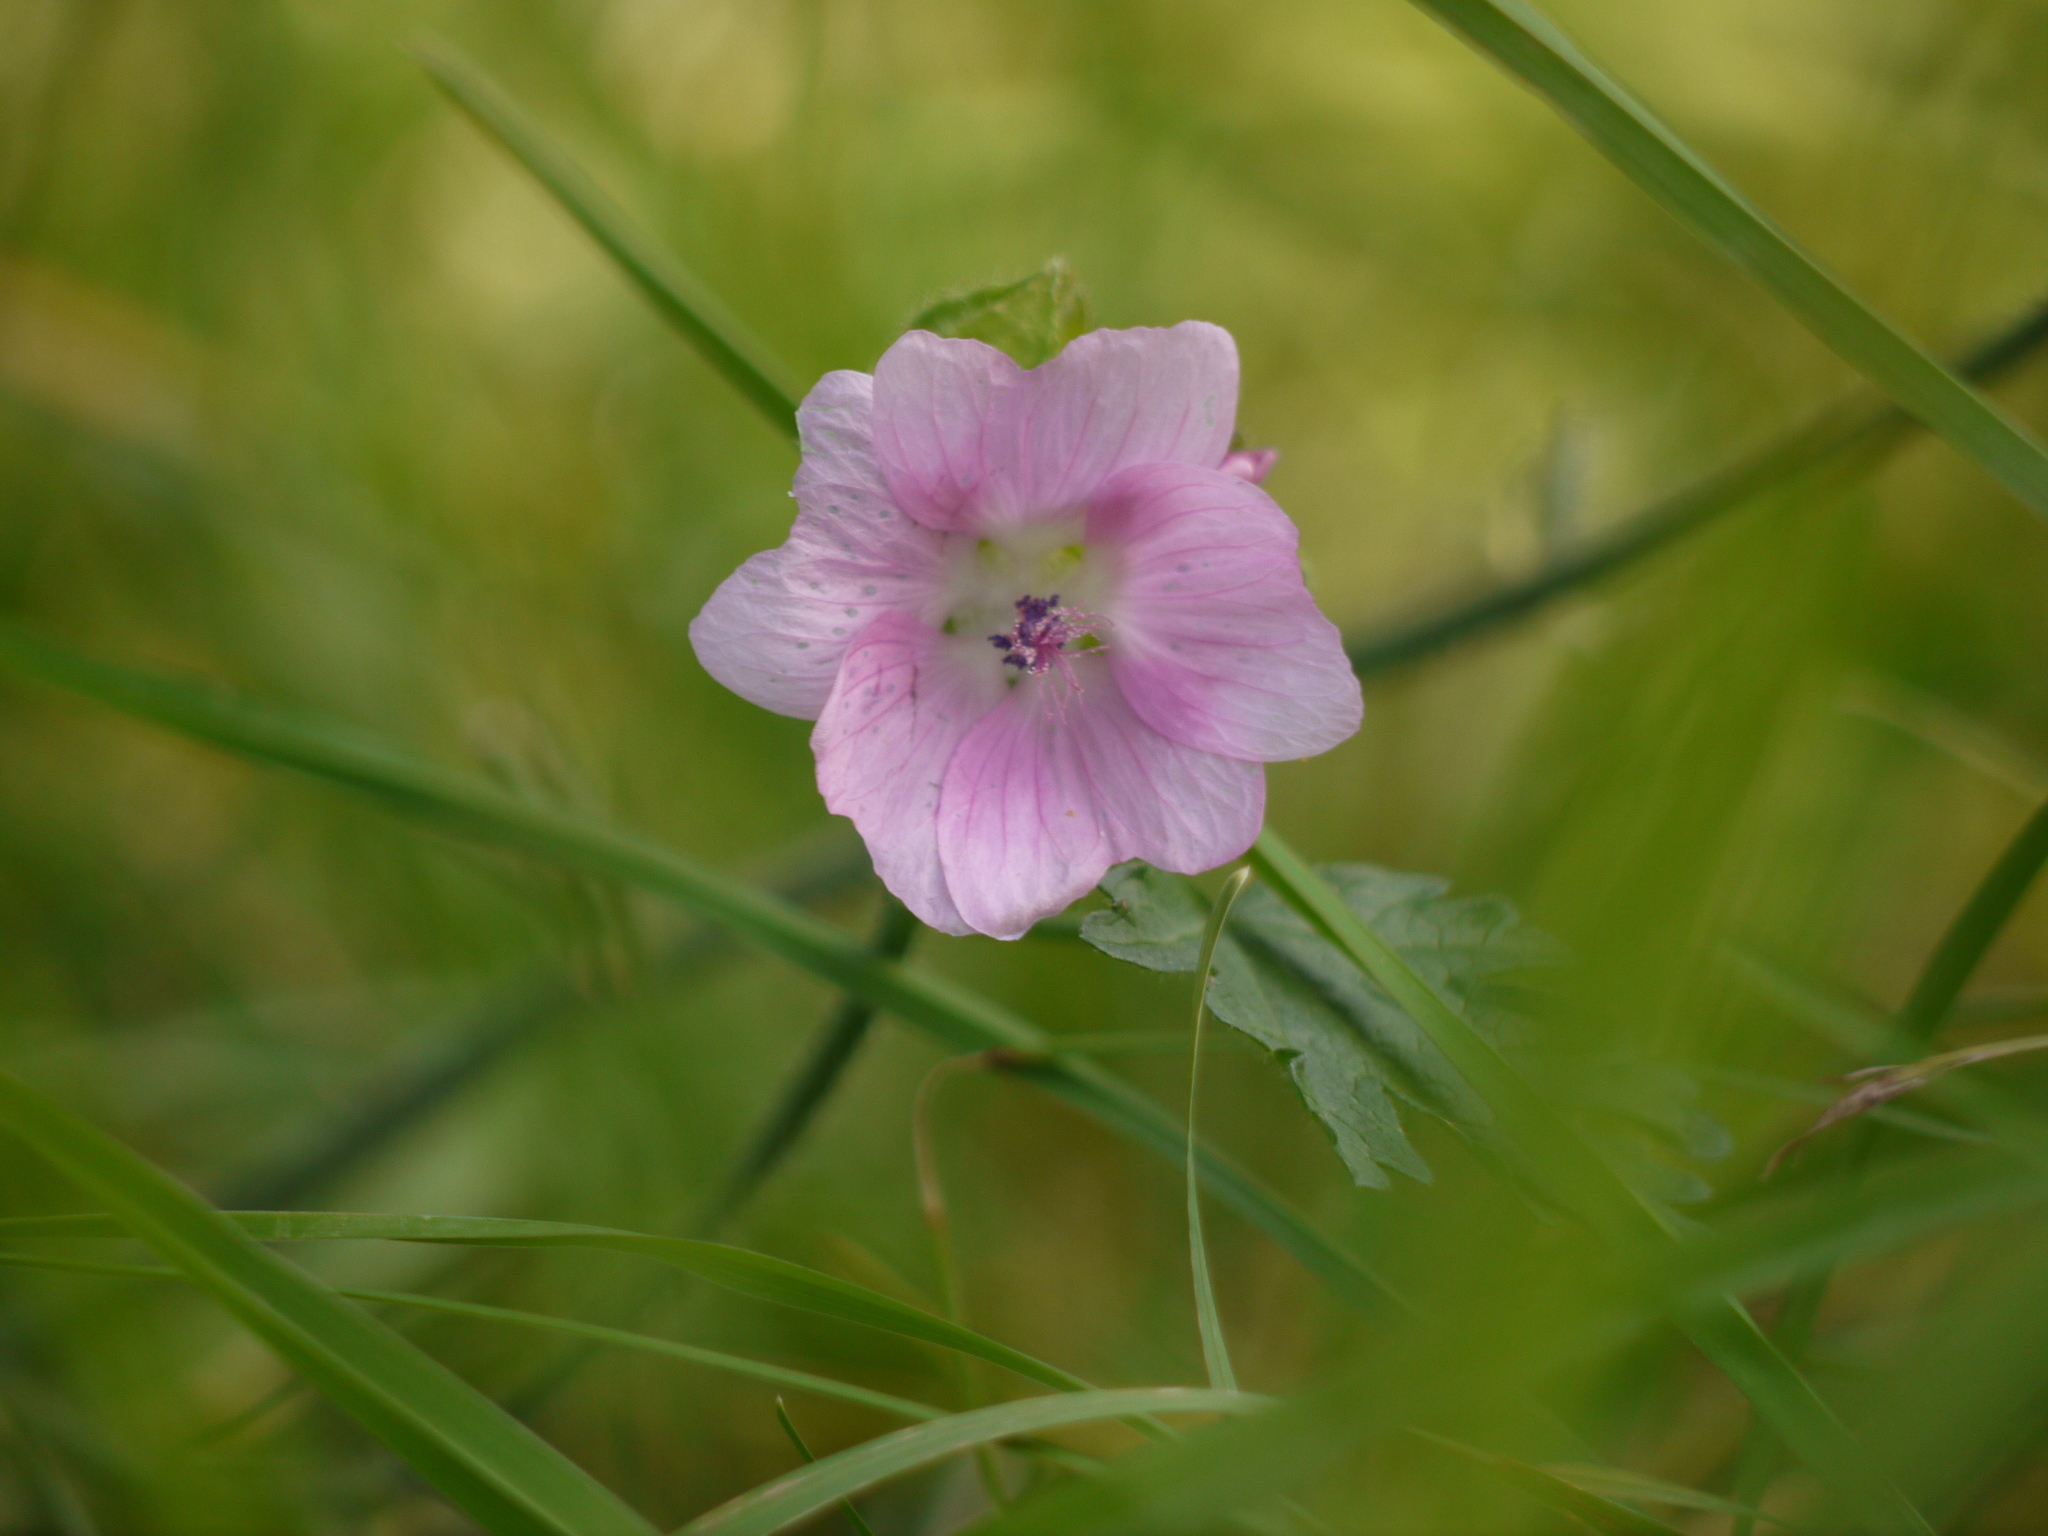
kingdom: Plantae
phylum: Tracheophyta
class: Magnoliopsida
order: Malvales
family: Malvaceae
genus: Malva
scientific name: Malva moschata
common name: Musk mallow
